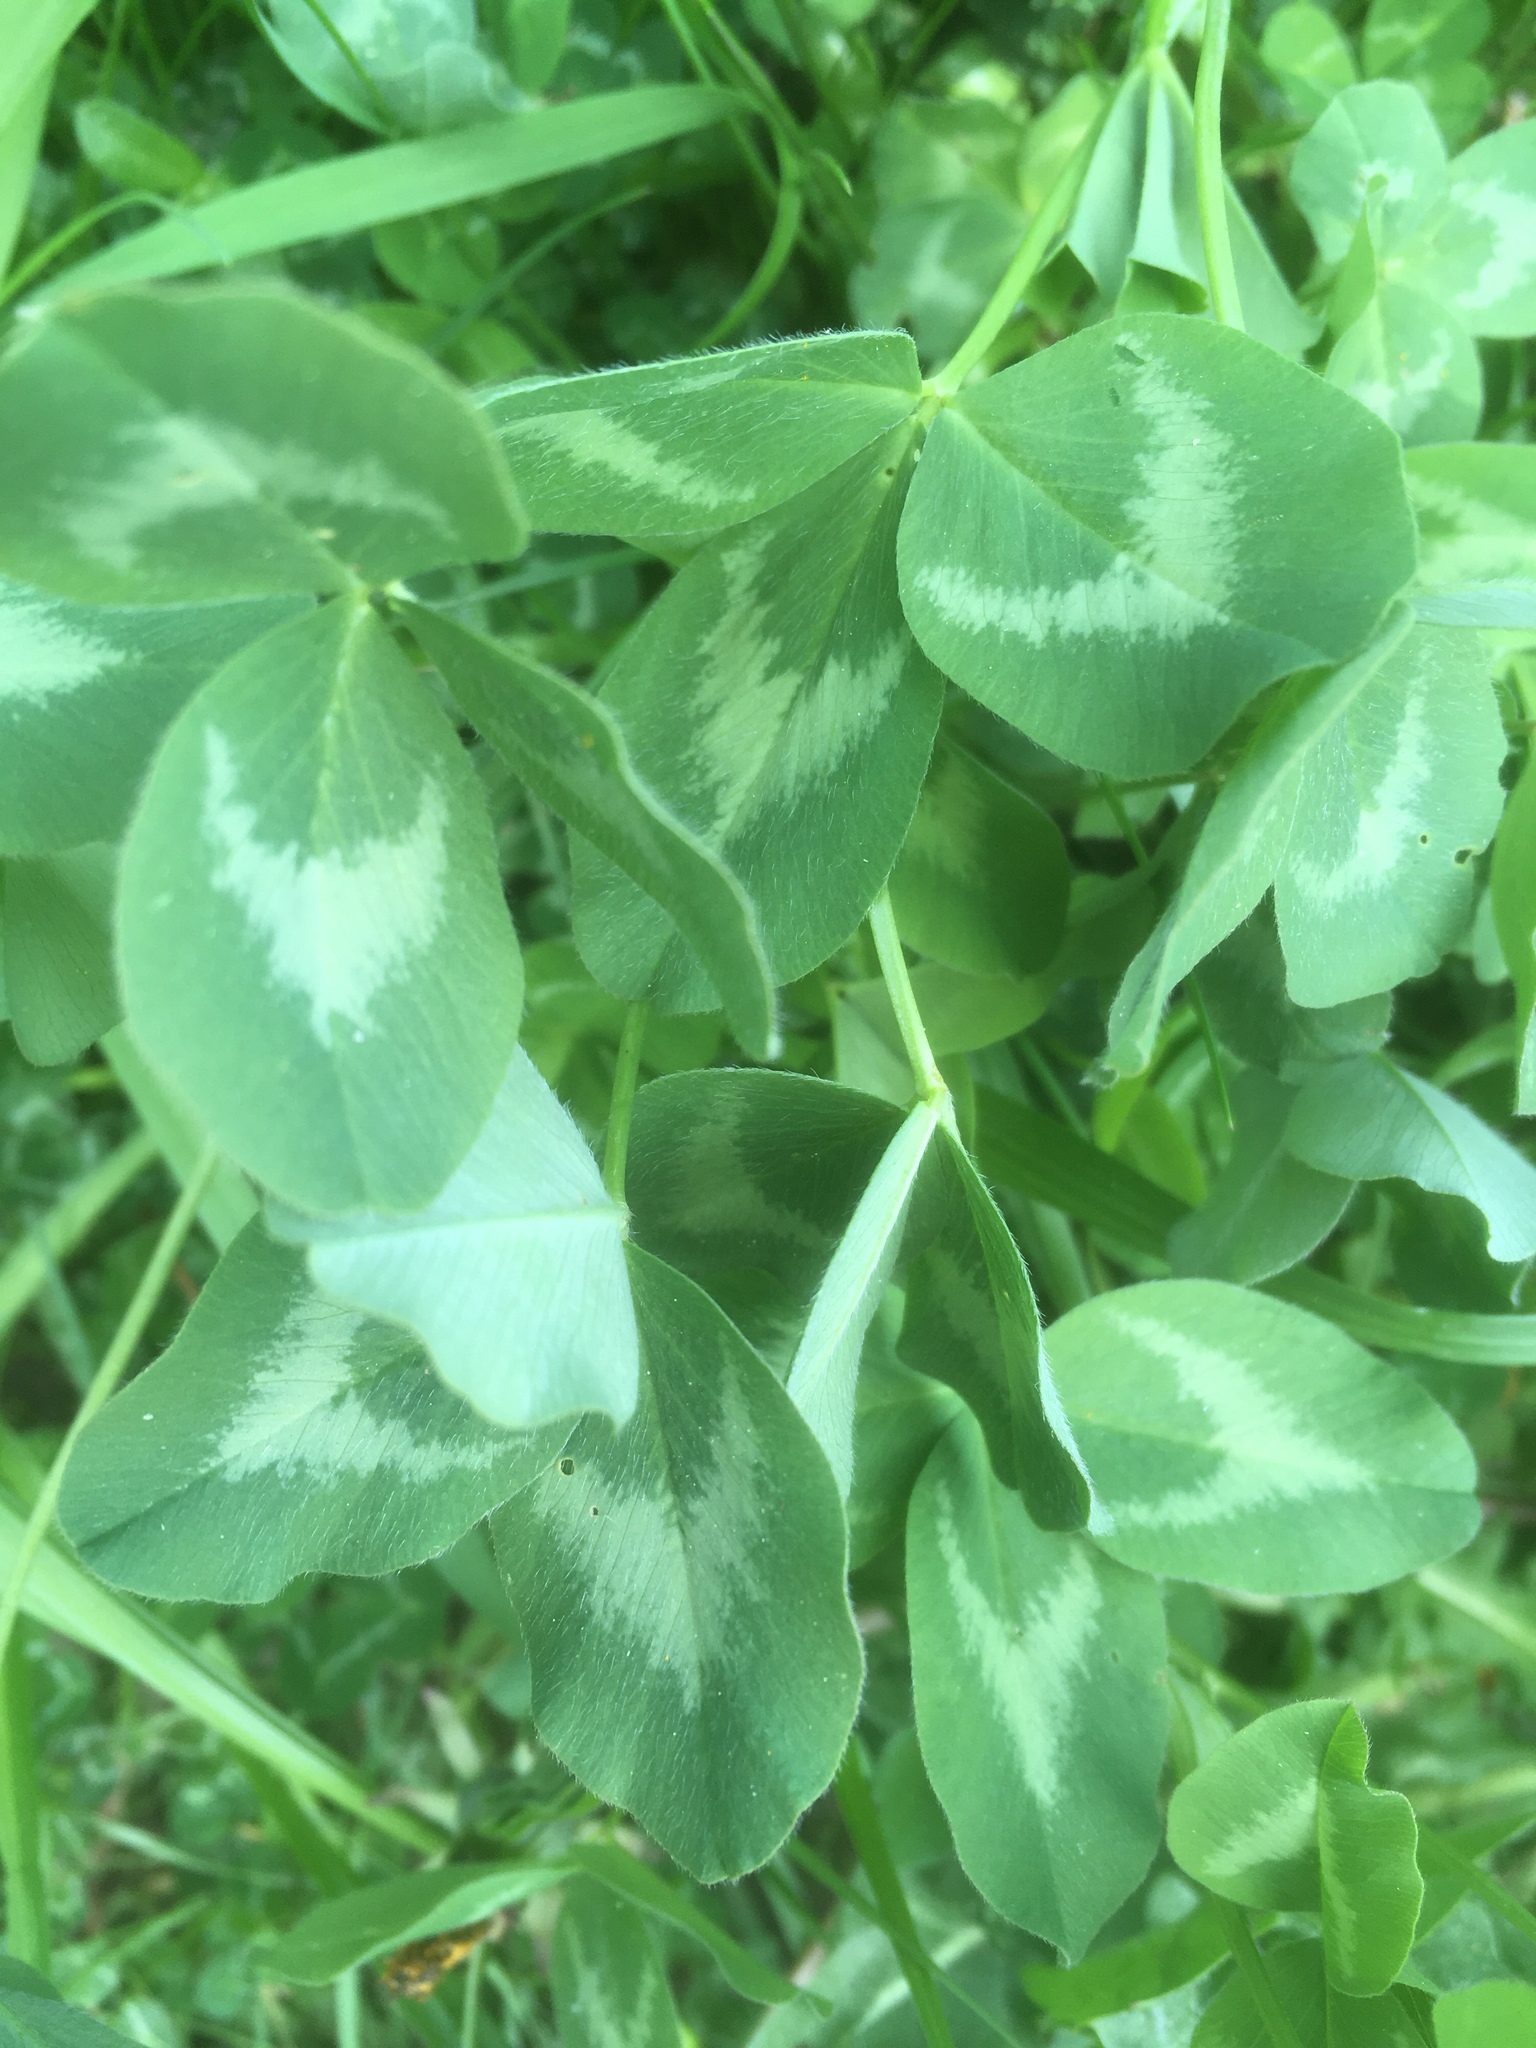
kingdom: Plantae
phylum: Tracheophyta
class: Magnoliopsida
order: Fabales
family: Fabaceae
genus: Trifolium
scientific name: Trifolium pratense
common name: Red clover
